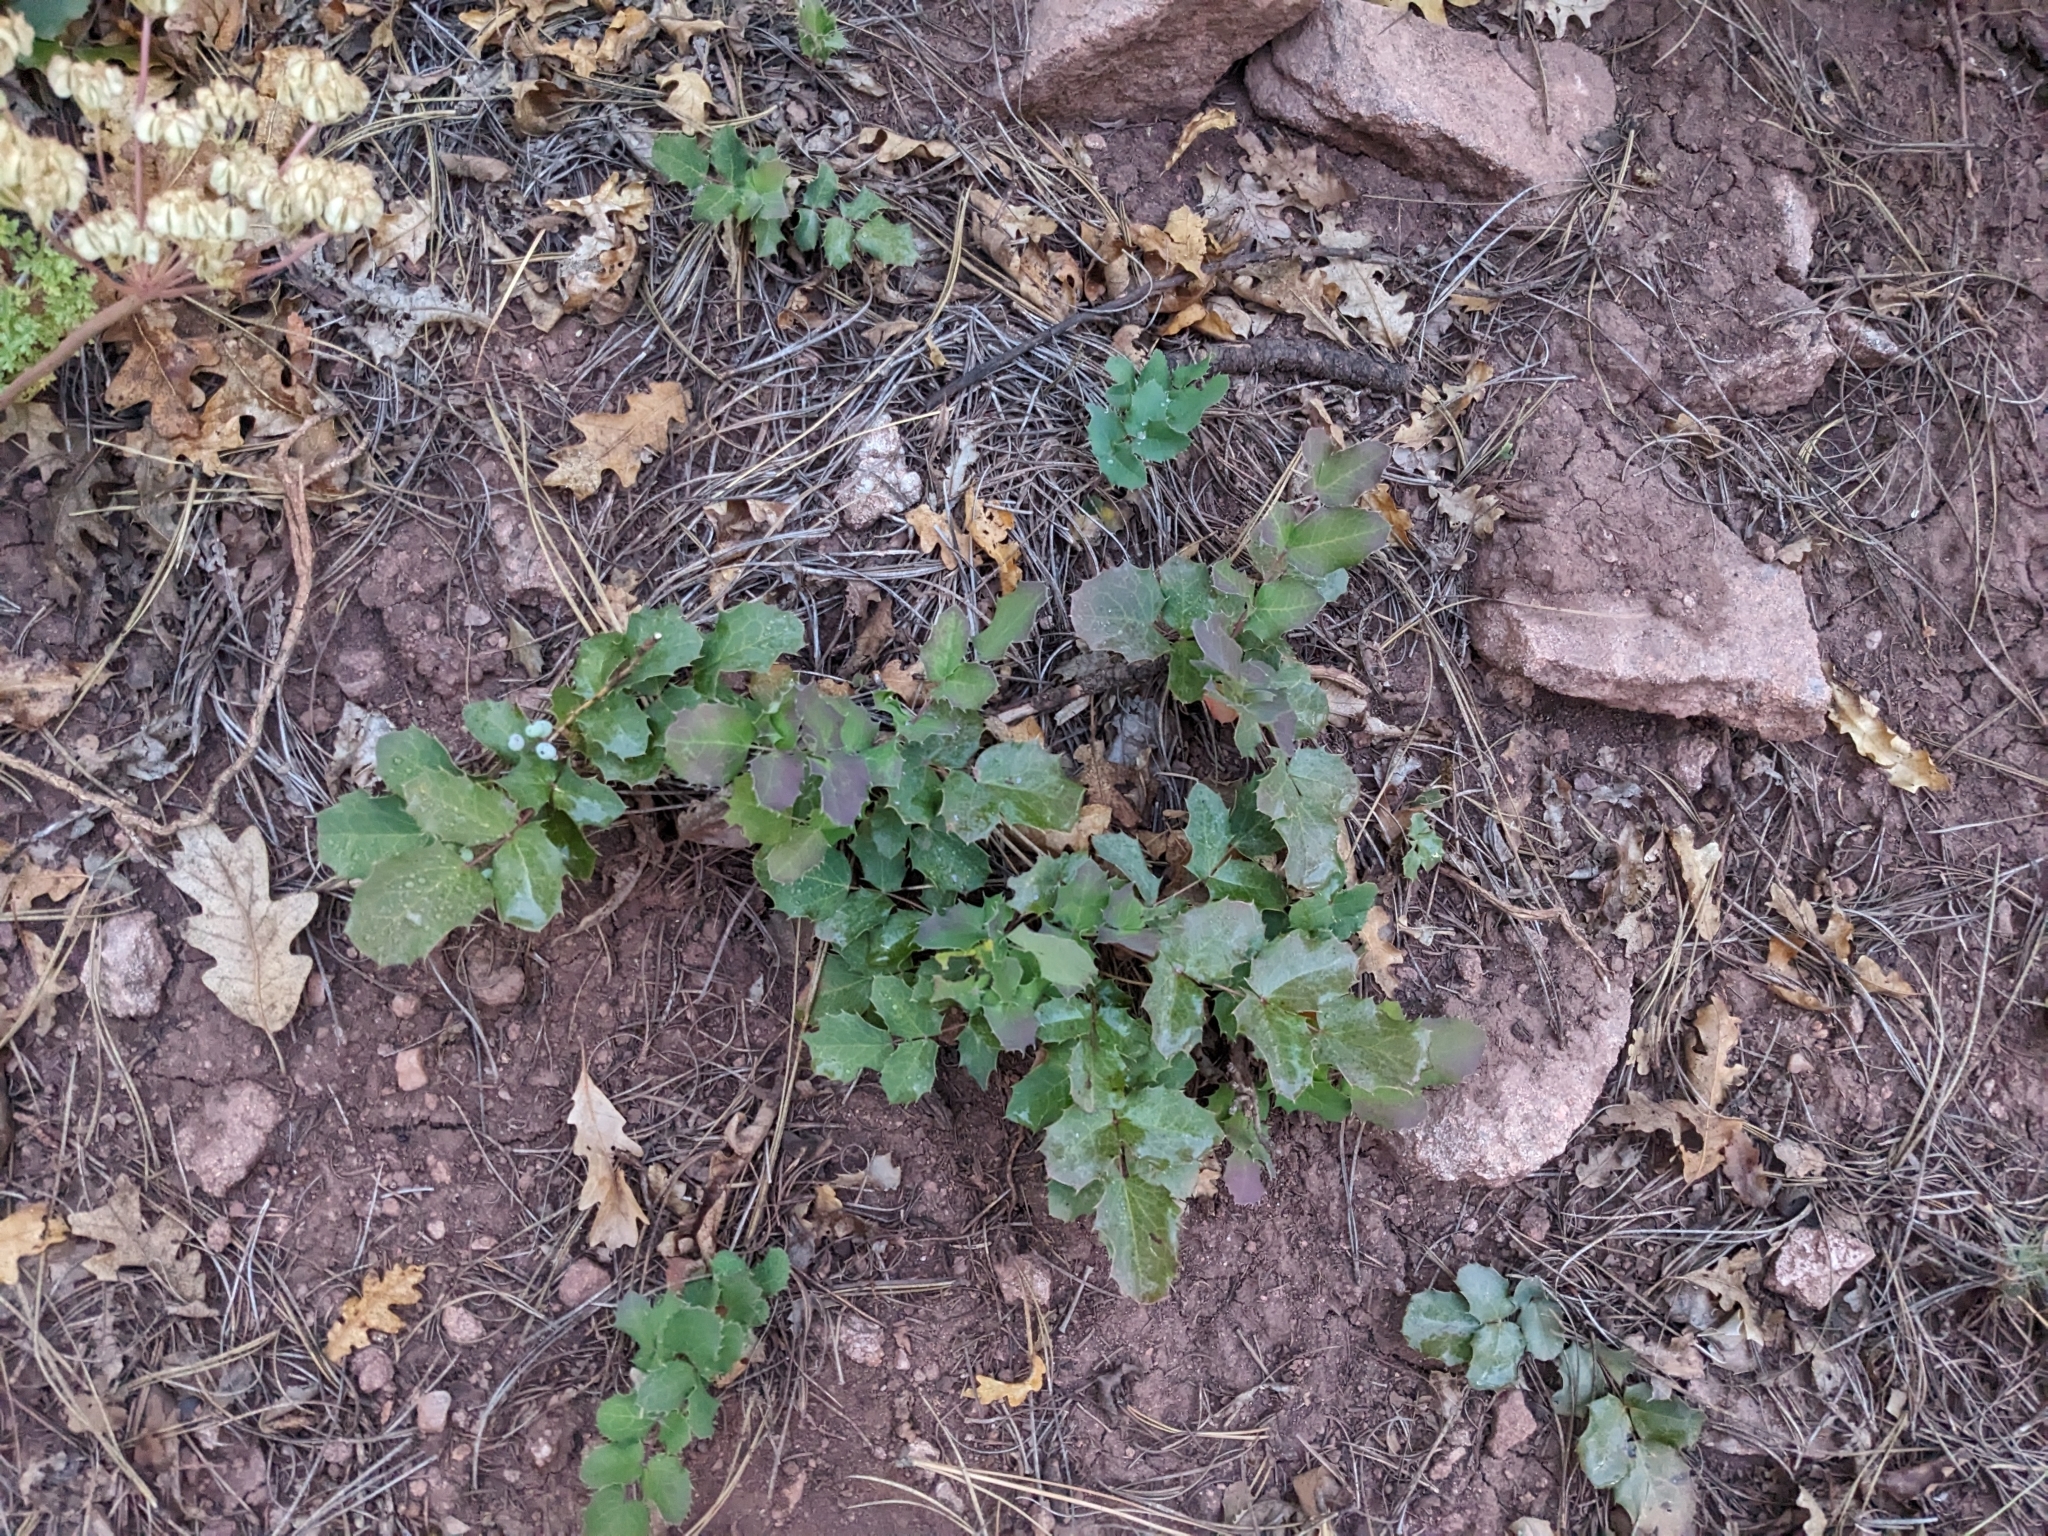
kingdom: Plantae
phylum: Tracheophyta
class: Magnoliopsida
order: Ranunculales
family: Berberidaceae
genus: Mahonia
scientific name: Mahonia repens
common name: Creeping oregon-grape
